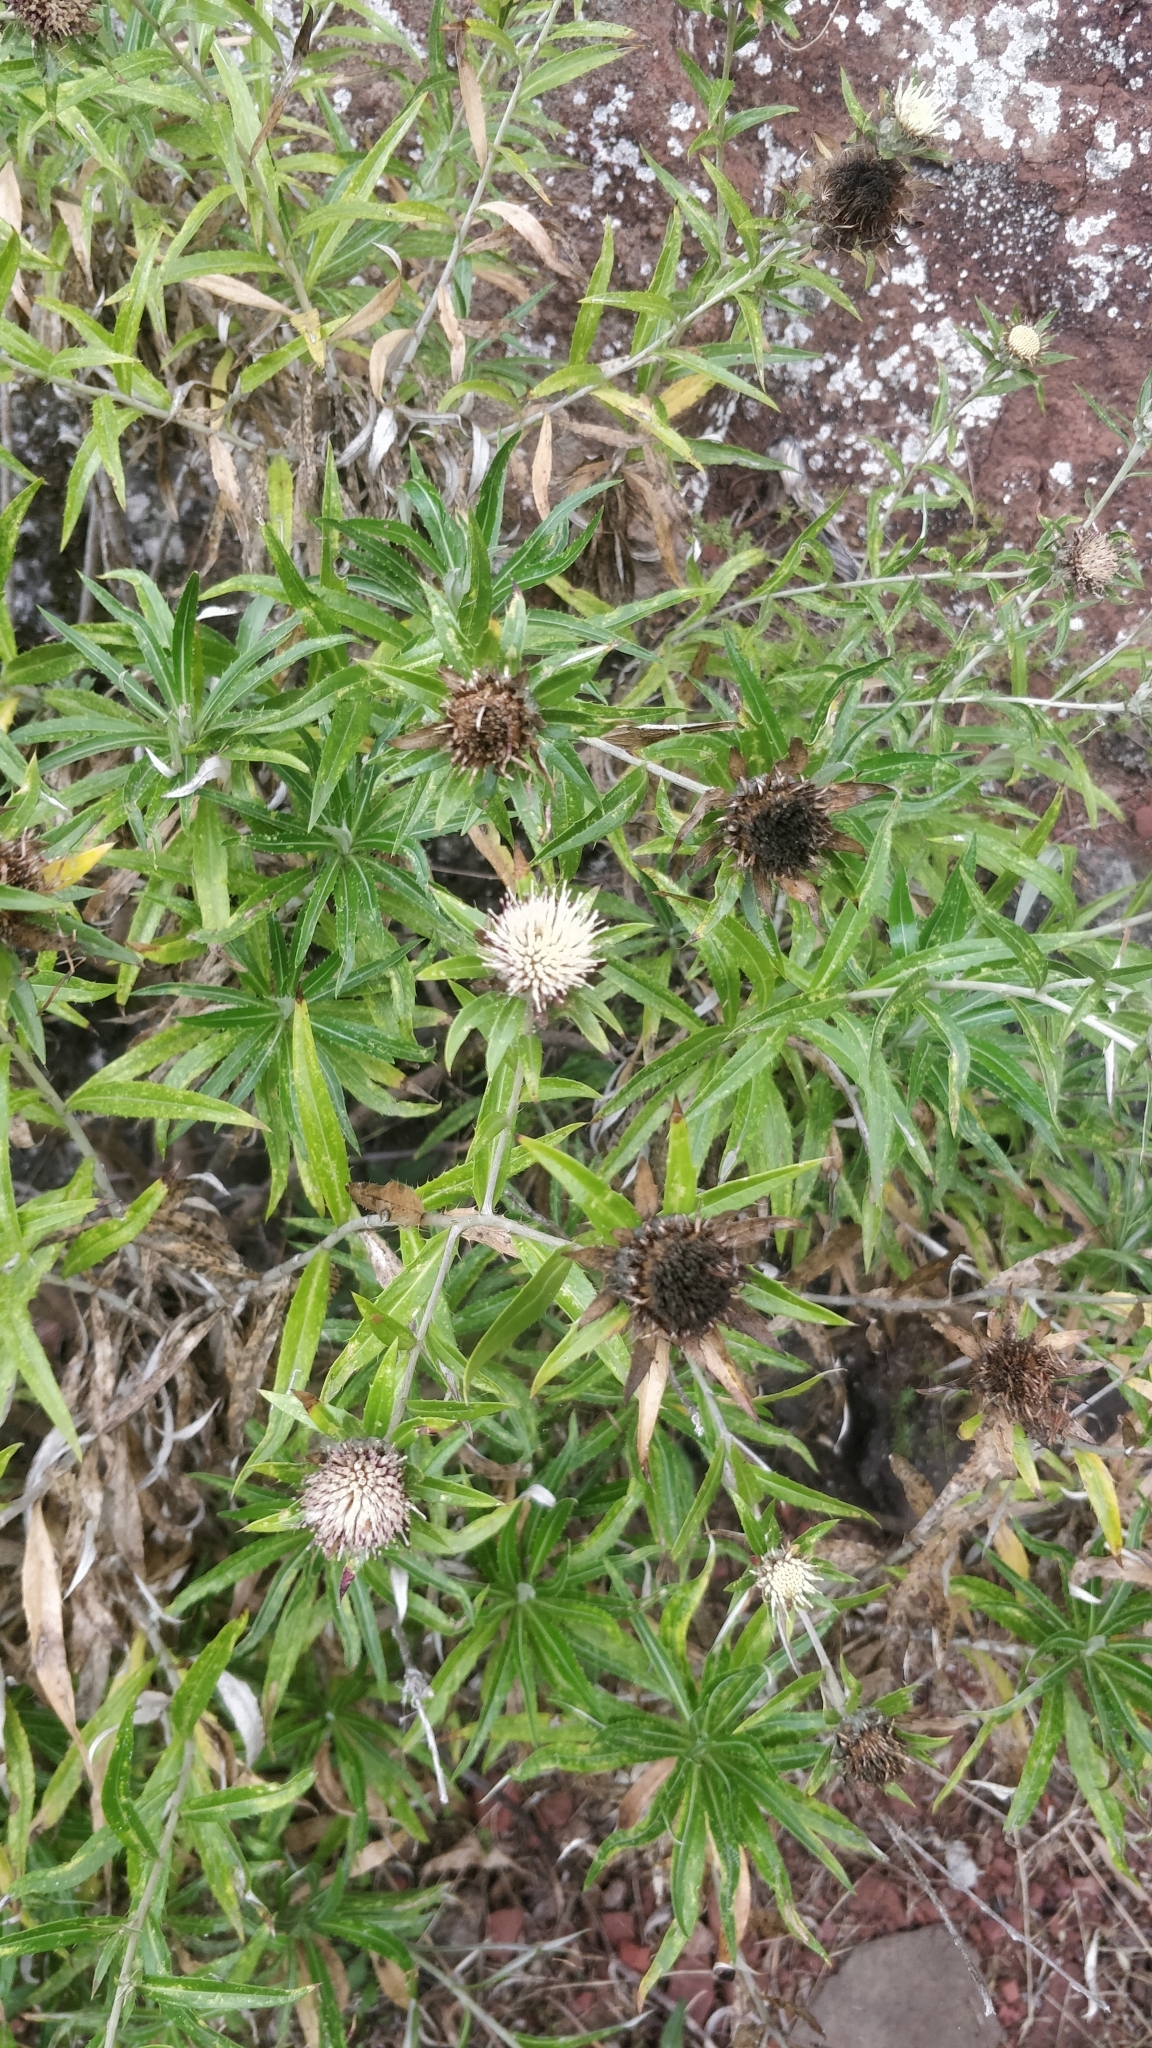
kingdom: Plantae
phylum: Tracheophyta
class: Magnoliopsida
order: Asterales
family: Asteraceae
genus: Carlina
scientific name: Carlina salicifolia
